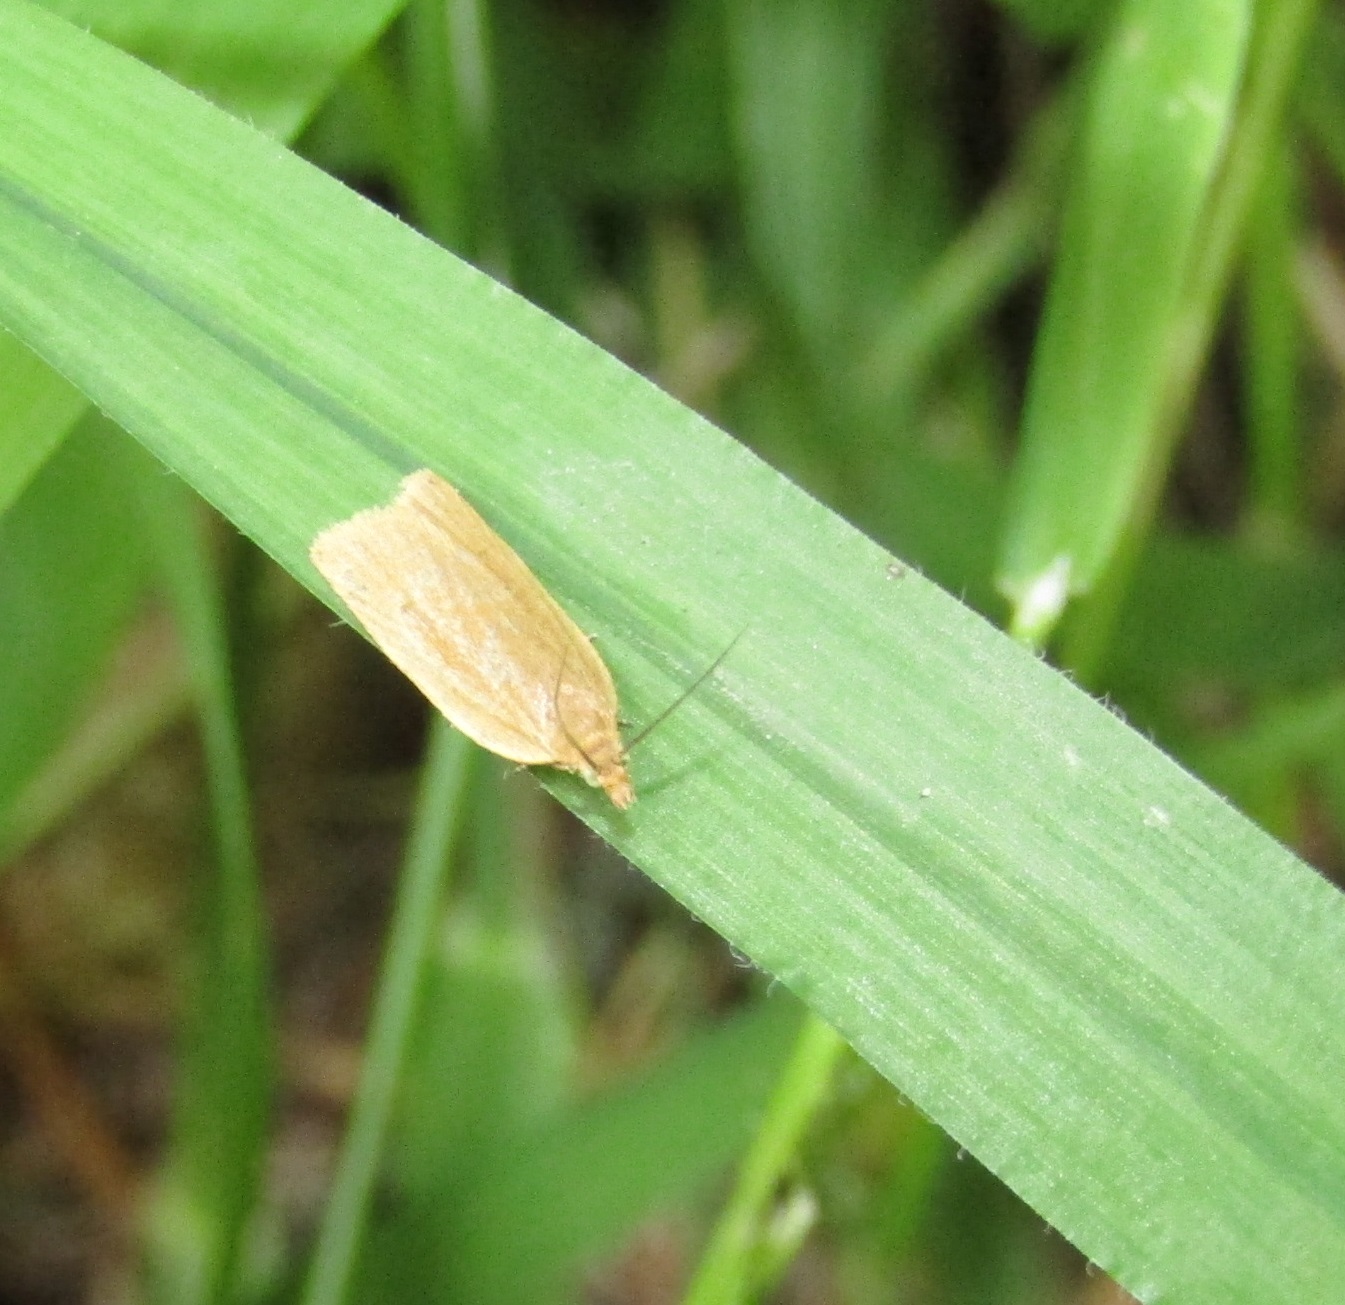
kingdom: Animalia
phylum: Arthropoda
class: Insecta
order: Lepidoptera
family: Tortricidae
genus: Clepsis
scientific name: Clepsis
